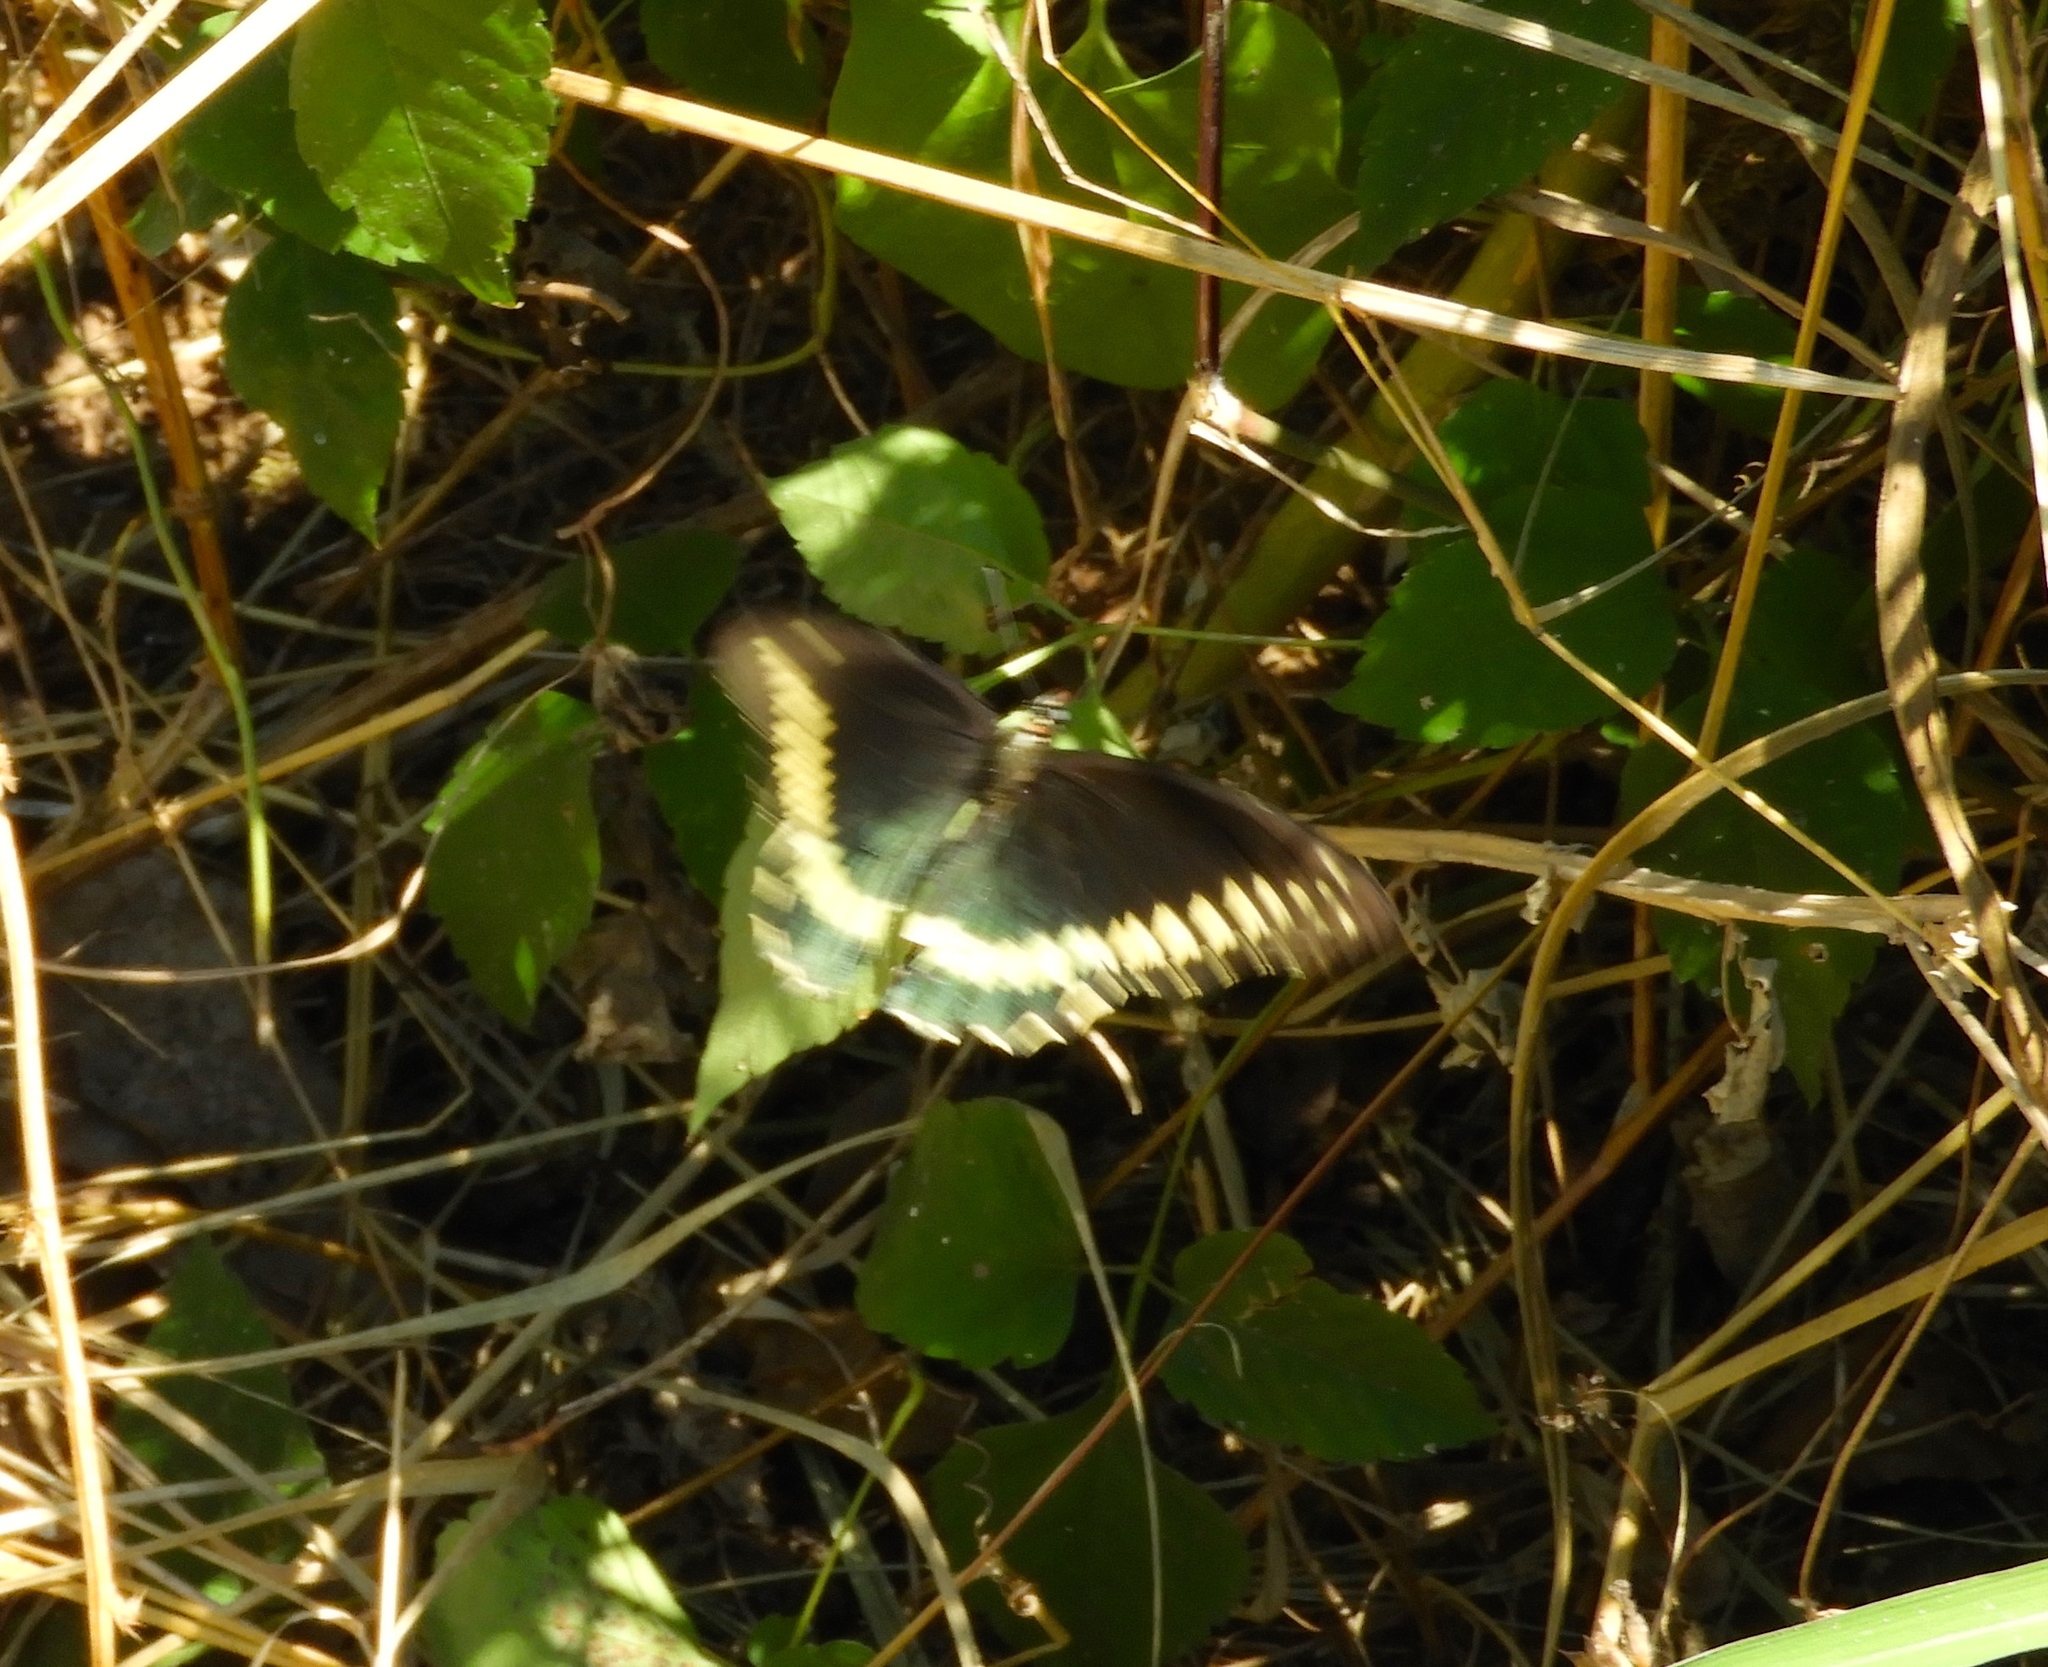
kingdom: Animalia
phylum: Arthropoda
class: Insecta
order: Lepidoptera
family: Papilionidae
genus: Battus
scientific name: Battus polydamas
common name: Polydamas swallowtail
